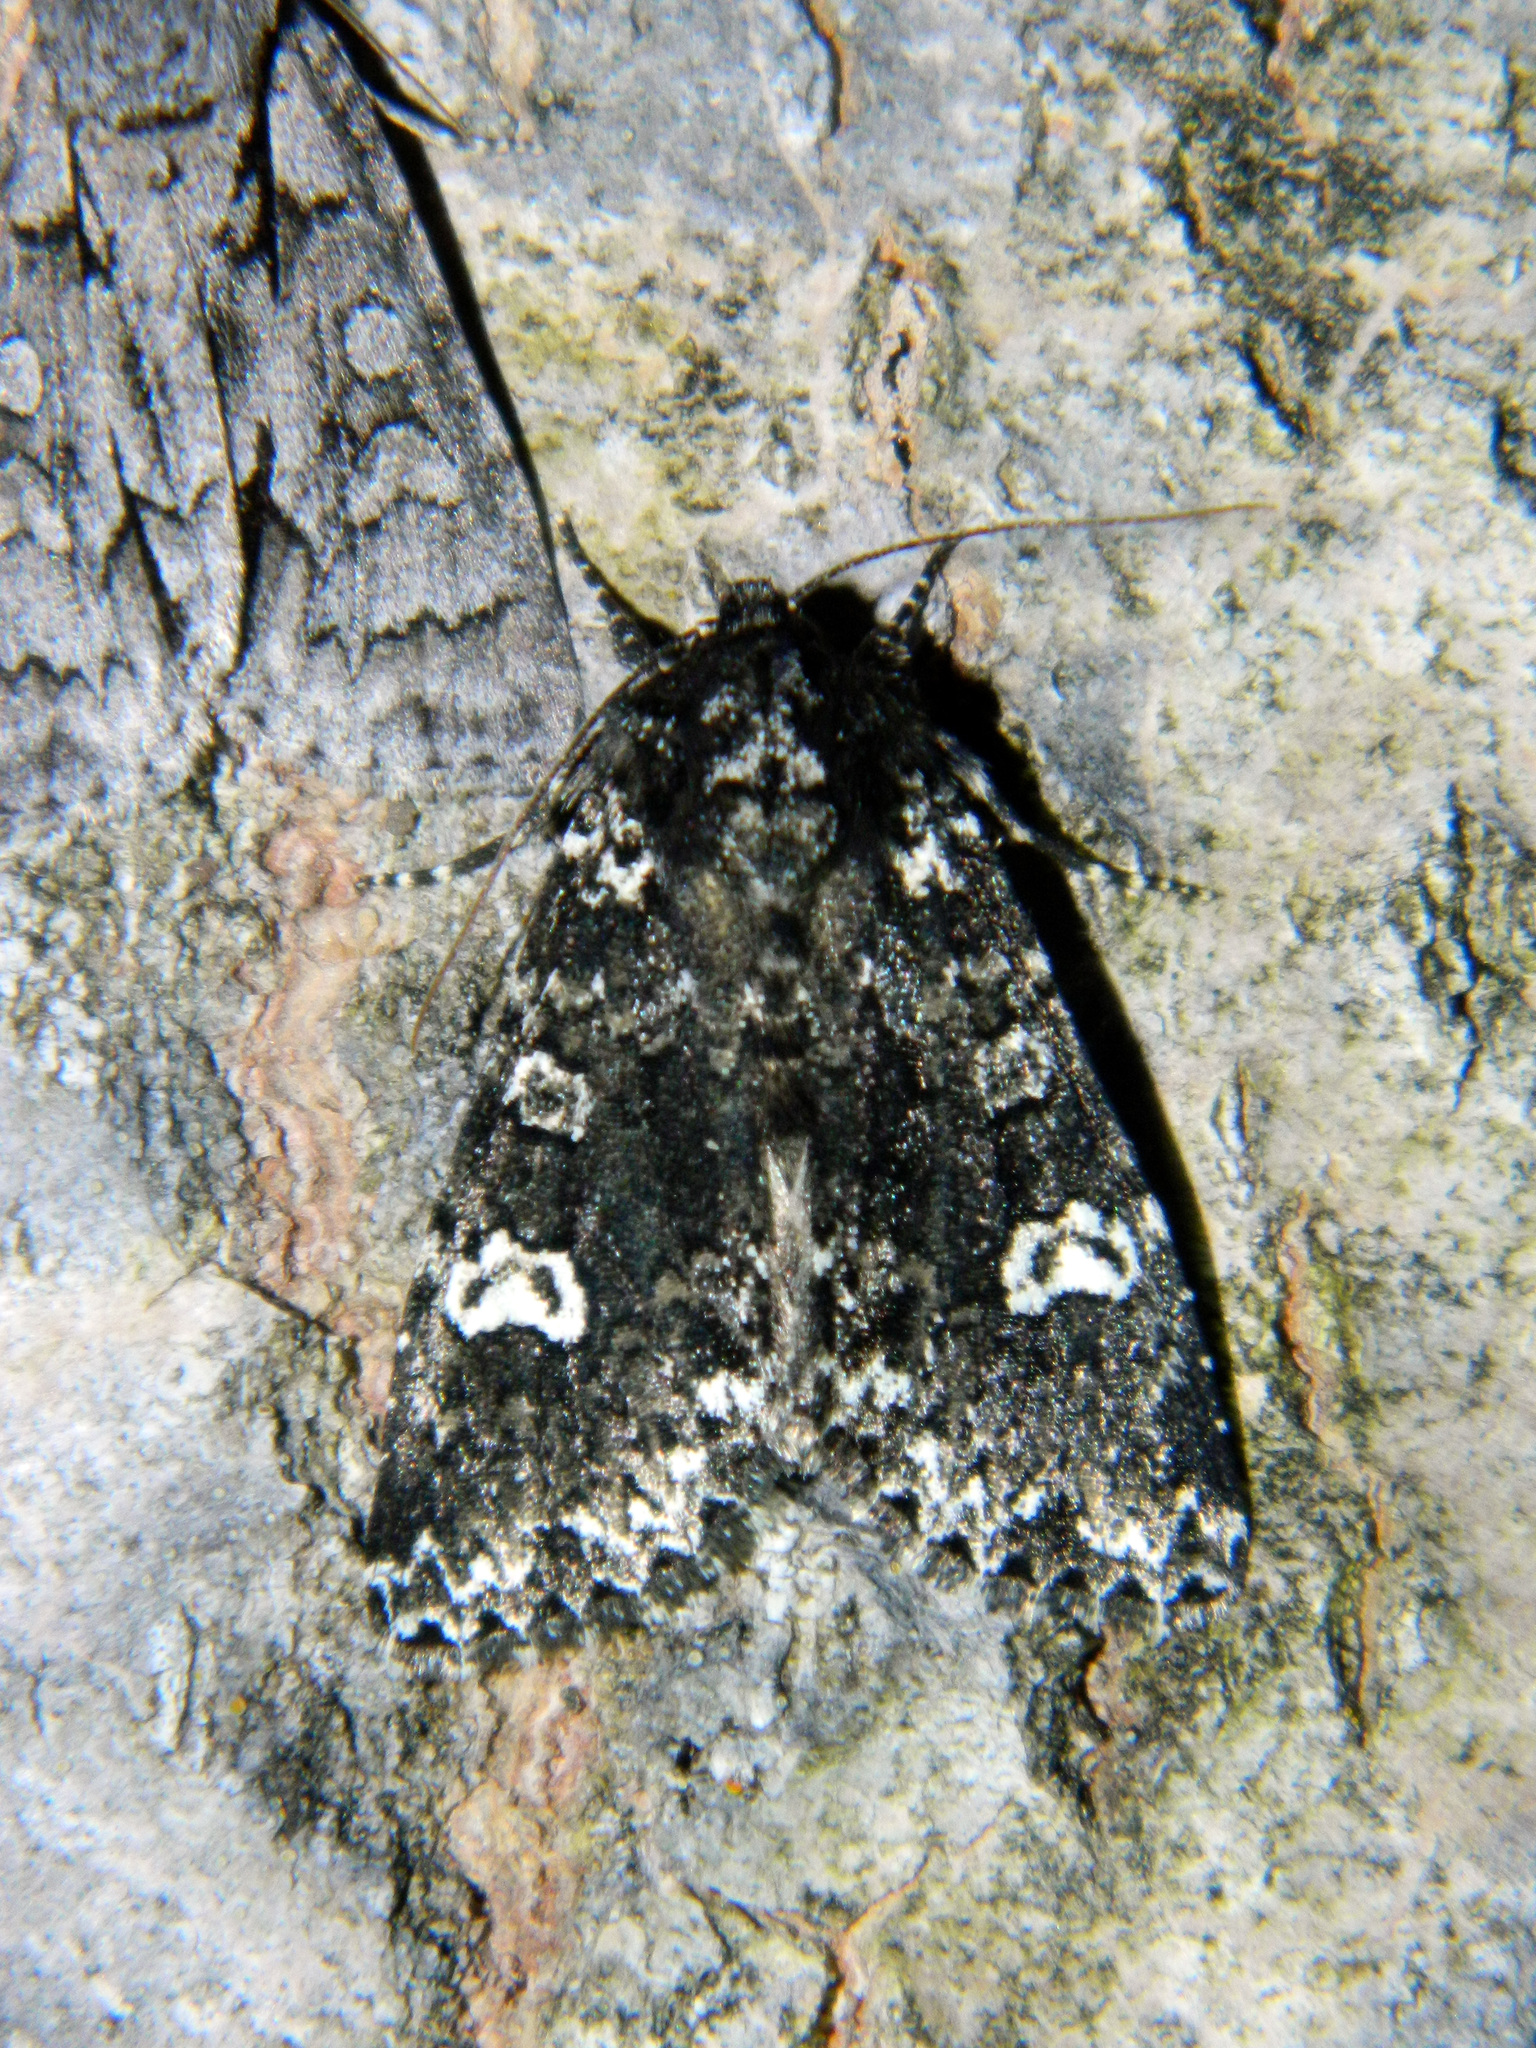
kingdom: Animalia
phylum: Arthropoda
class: Insecta
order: Lepidoptera
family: Noctuidae
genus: Melanchra
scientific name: Melanchra adjuncta
